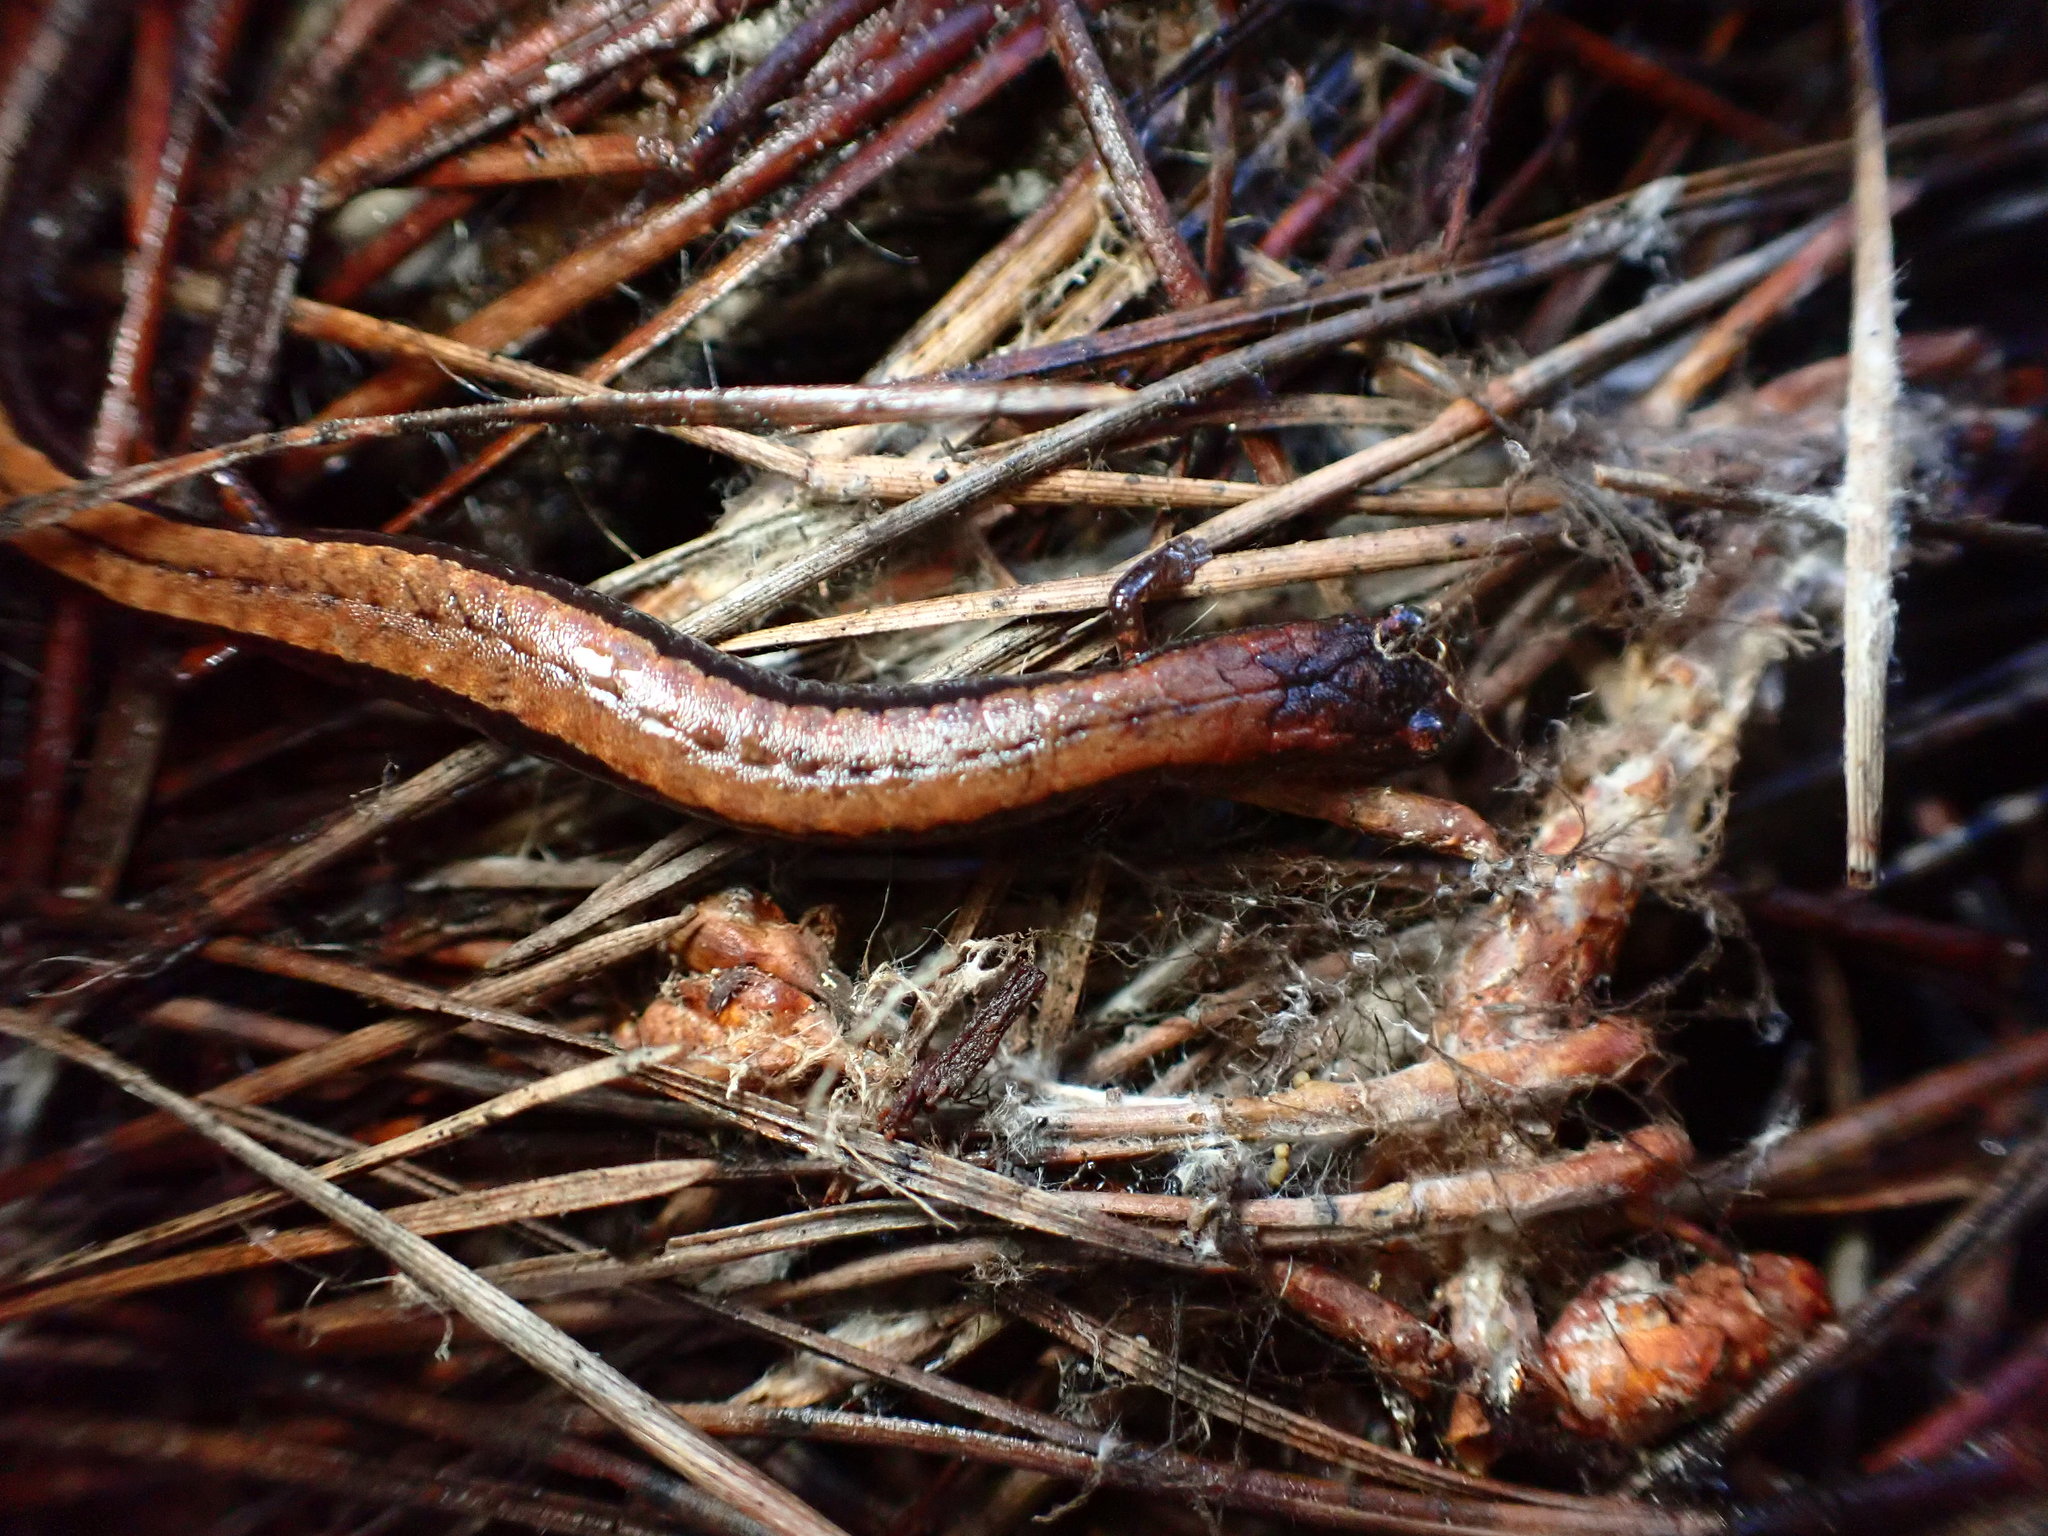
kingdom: Animalia
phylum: Chordata
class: Amphibia
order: Caudata
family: Plethodontidae
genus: Batrachoseps
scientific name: Batrachoseps attenuatus
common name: California slender salamander
